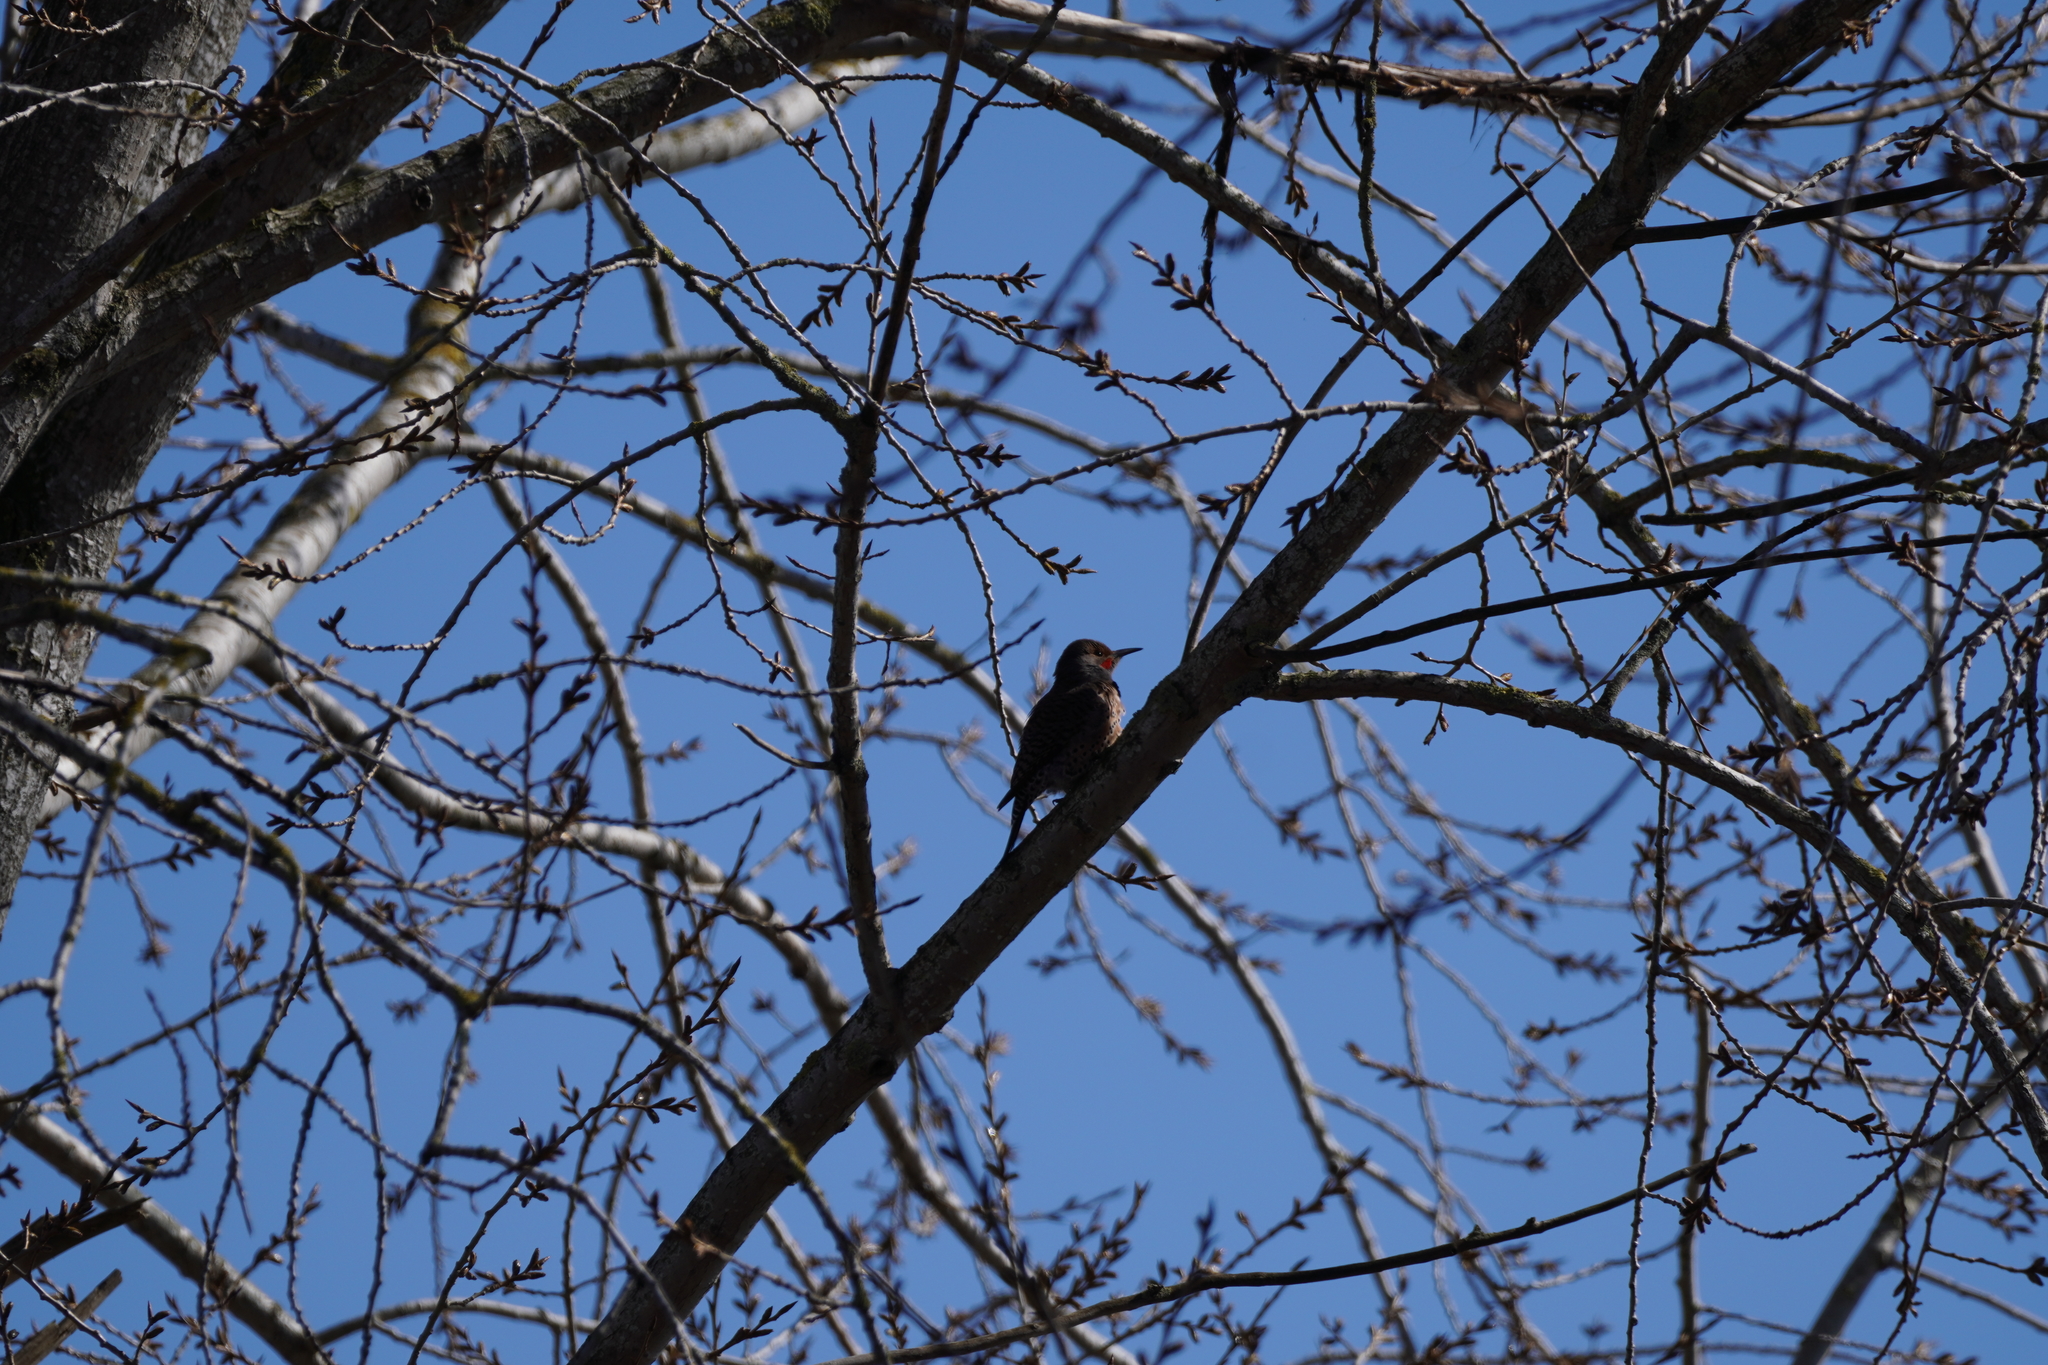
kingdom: Animalia
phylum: Chordata
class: Aves
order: Piciformes
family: Picidae
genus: Colaptes
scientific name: Colaptes auratus
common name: Northern flicker
